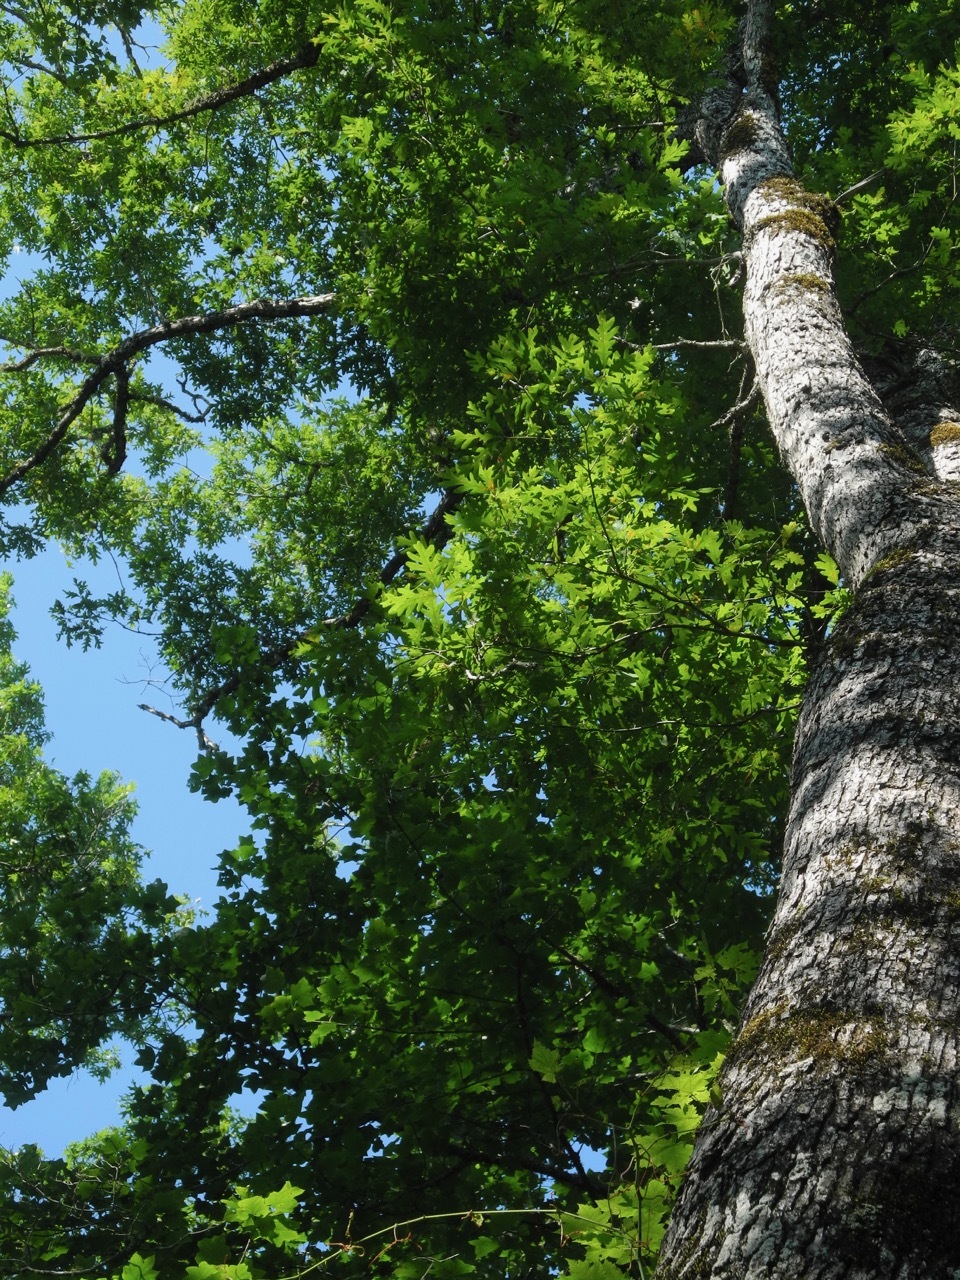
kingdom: Plantae
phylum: Tracheophyta
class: Magnoliopsida
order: Fagales
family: Fagaceae
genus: Quercus
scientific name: Quercus alba
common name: White oak
